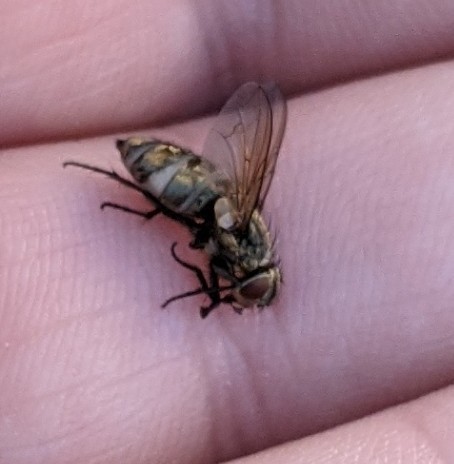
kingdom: Animalia
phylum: Arthropoda
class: Insecta
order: Diptera
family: Polleniidae
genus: Pollenia
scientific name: Pollenia
